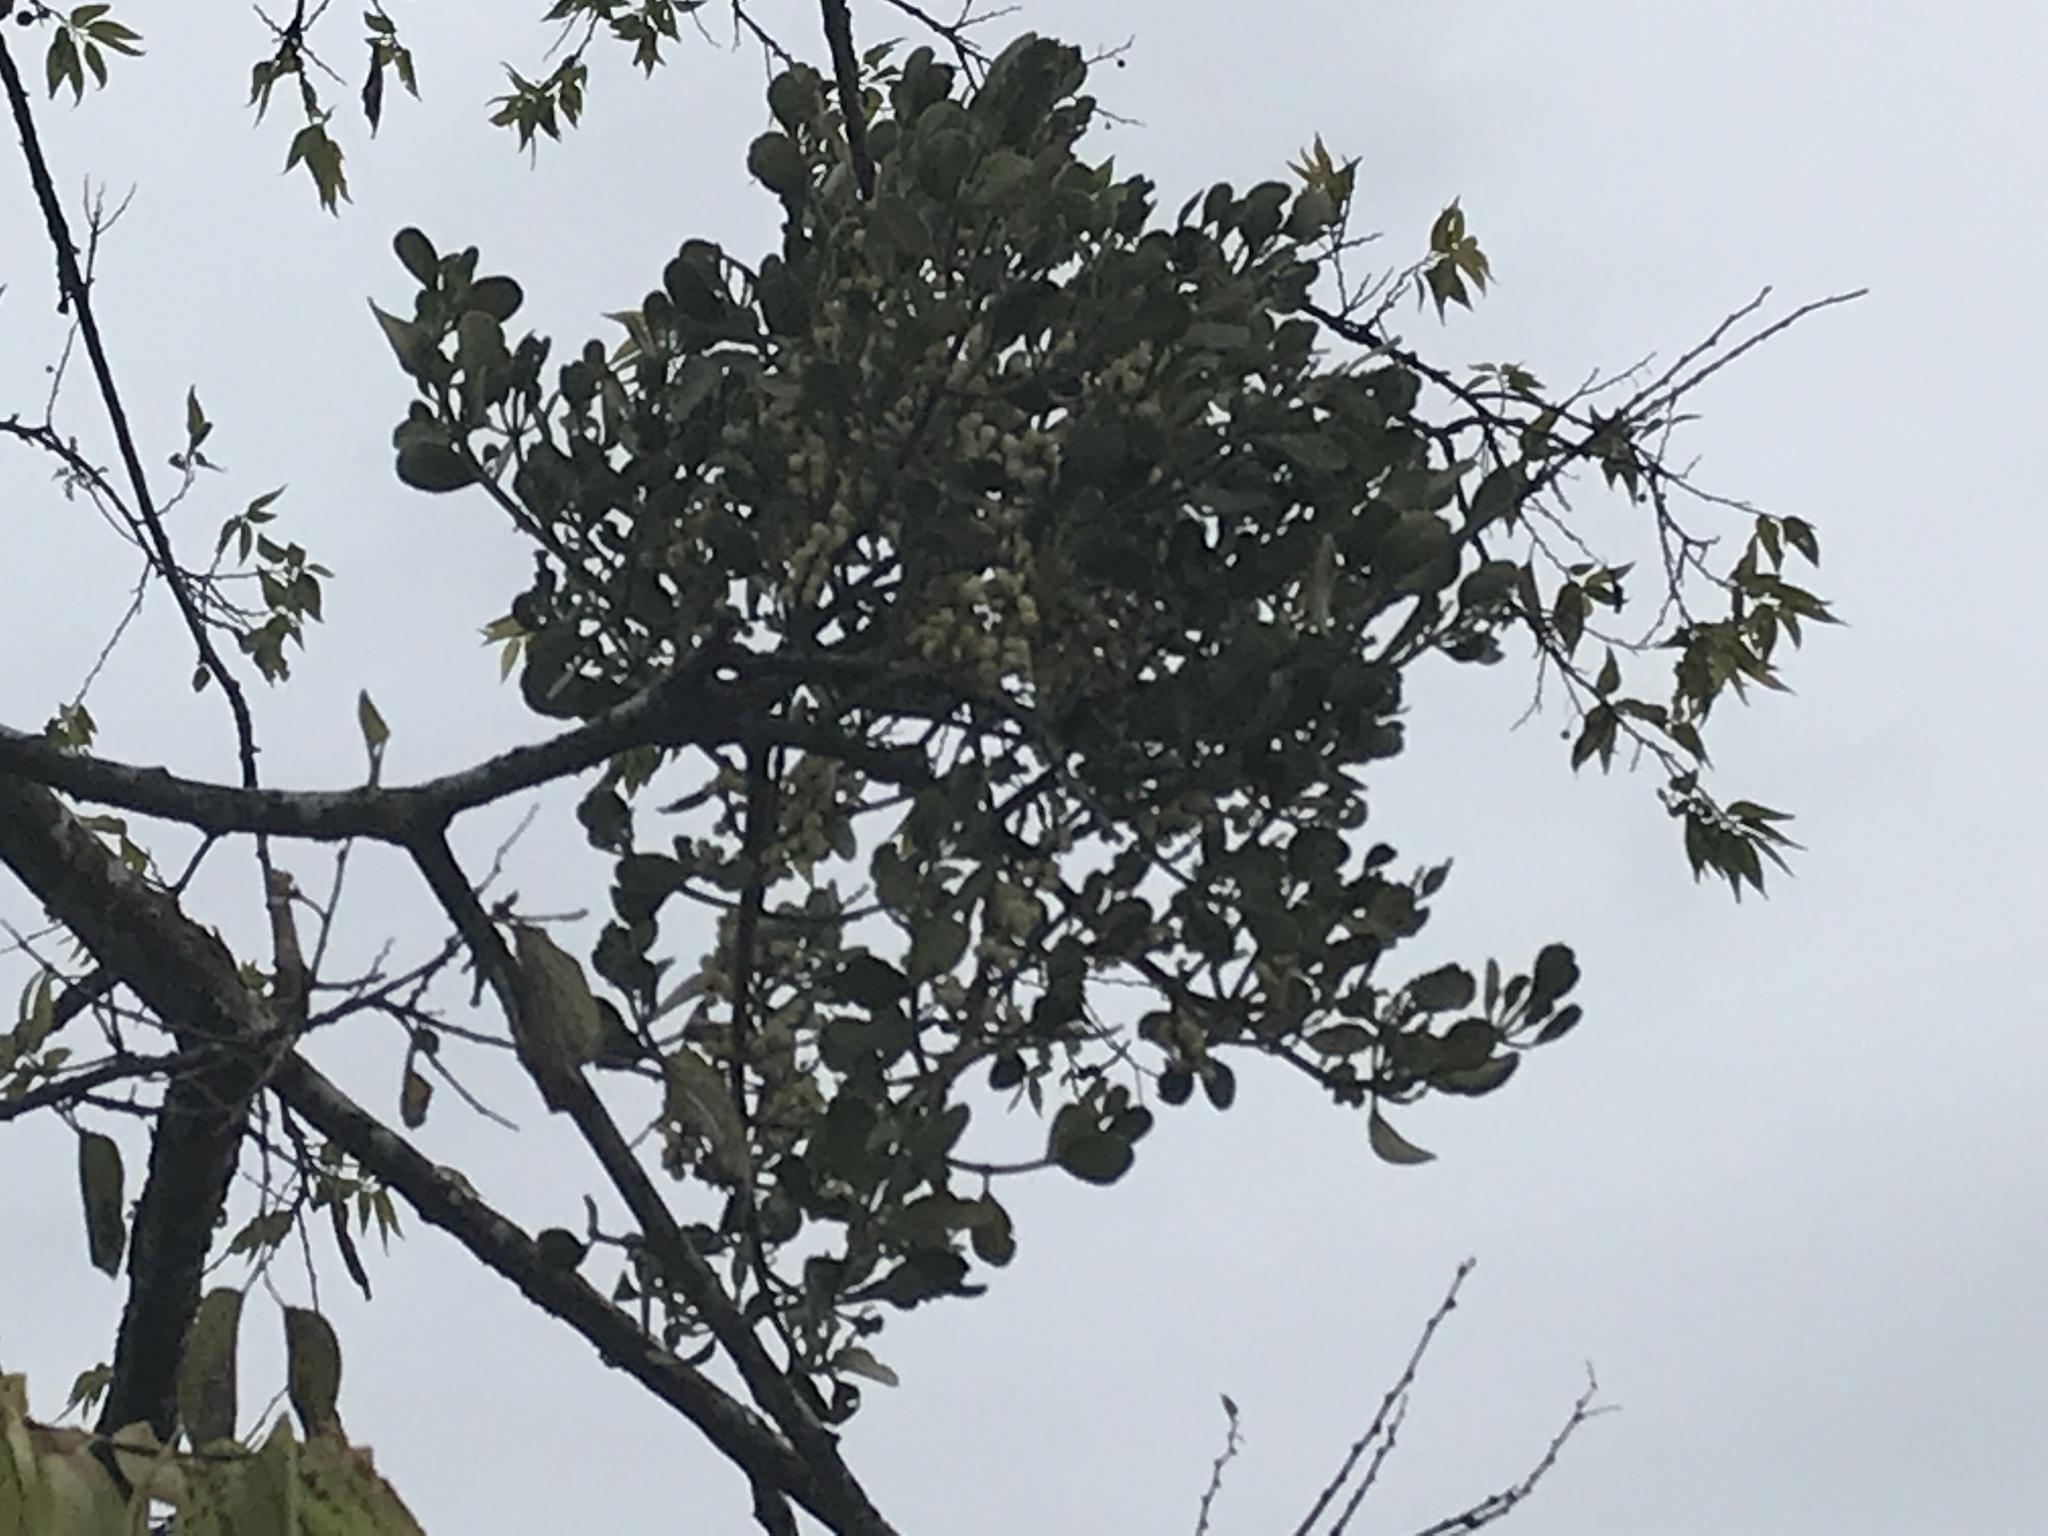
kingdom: Plantae
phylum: Tracheophyta
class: Magnoliopsida
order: Santalales
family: Viscaceae
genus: Phoradendron
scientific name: Phoradendron leucarpum
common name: Pacific mistletoe
